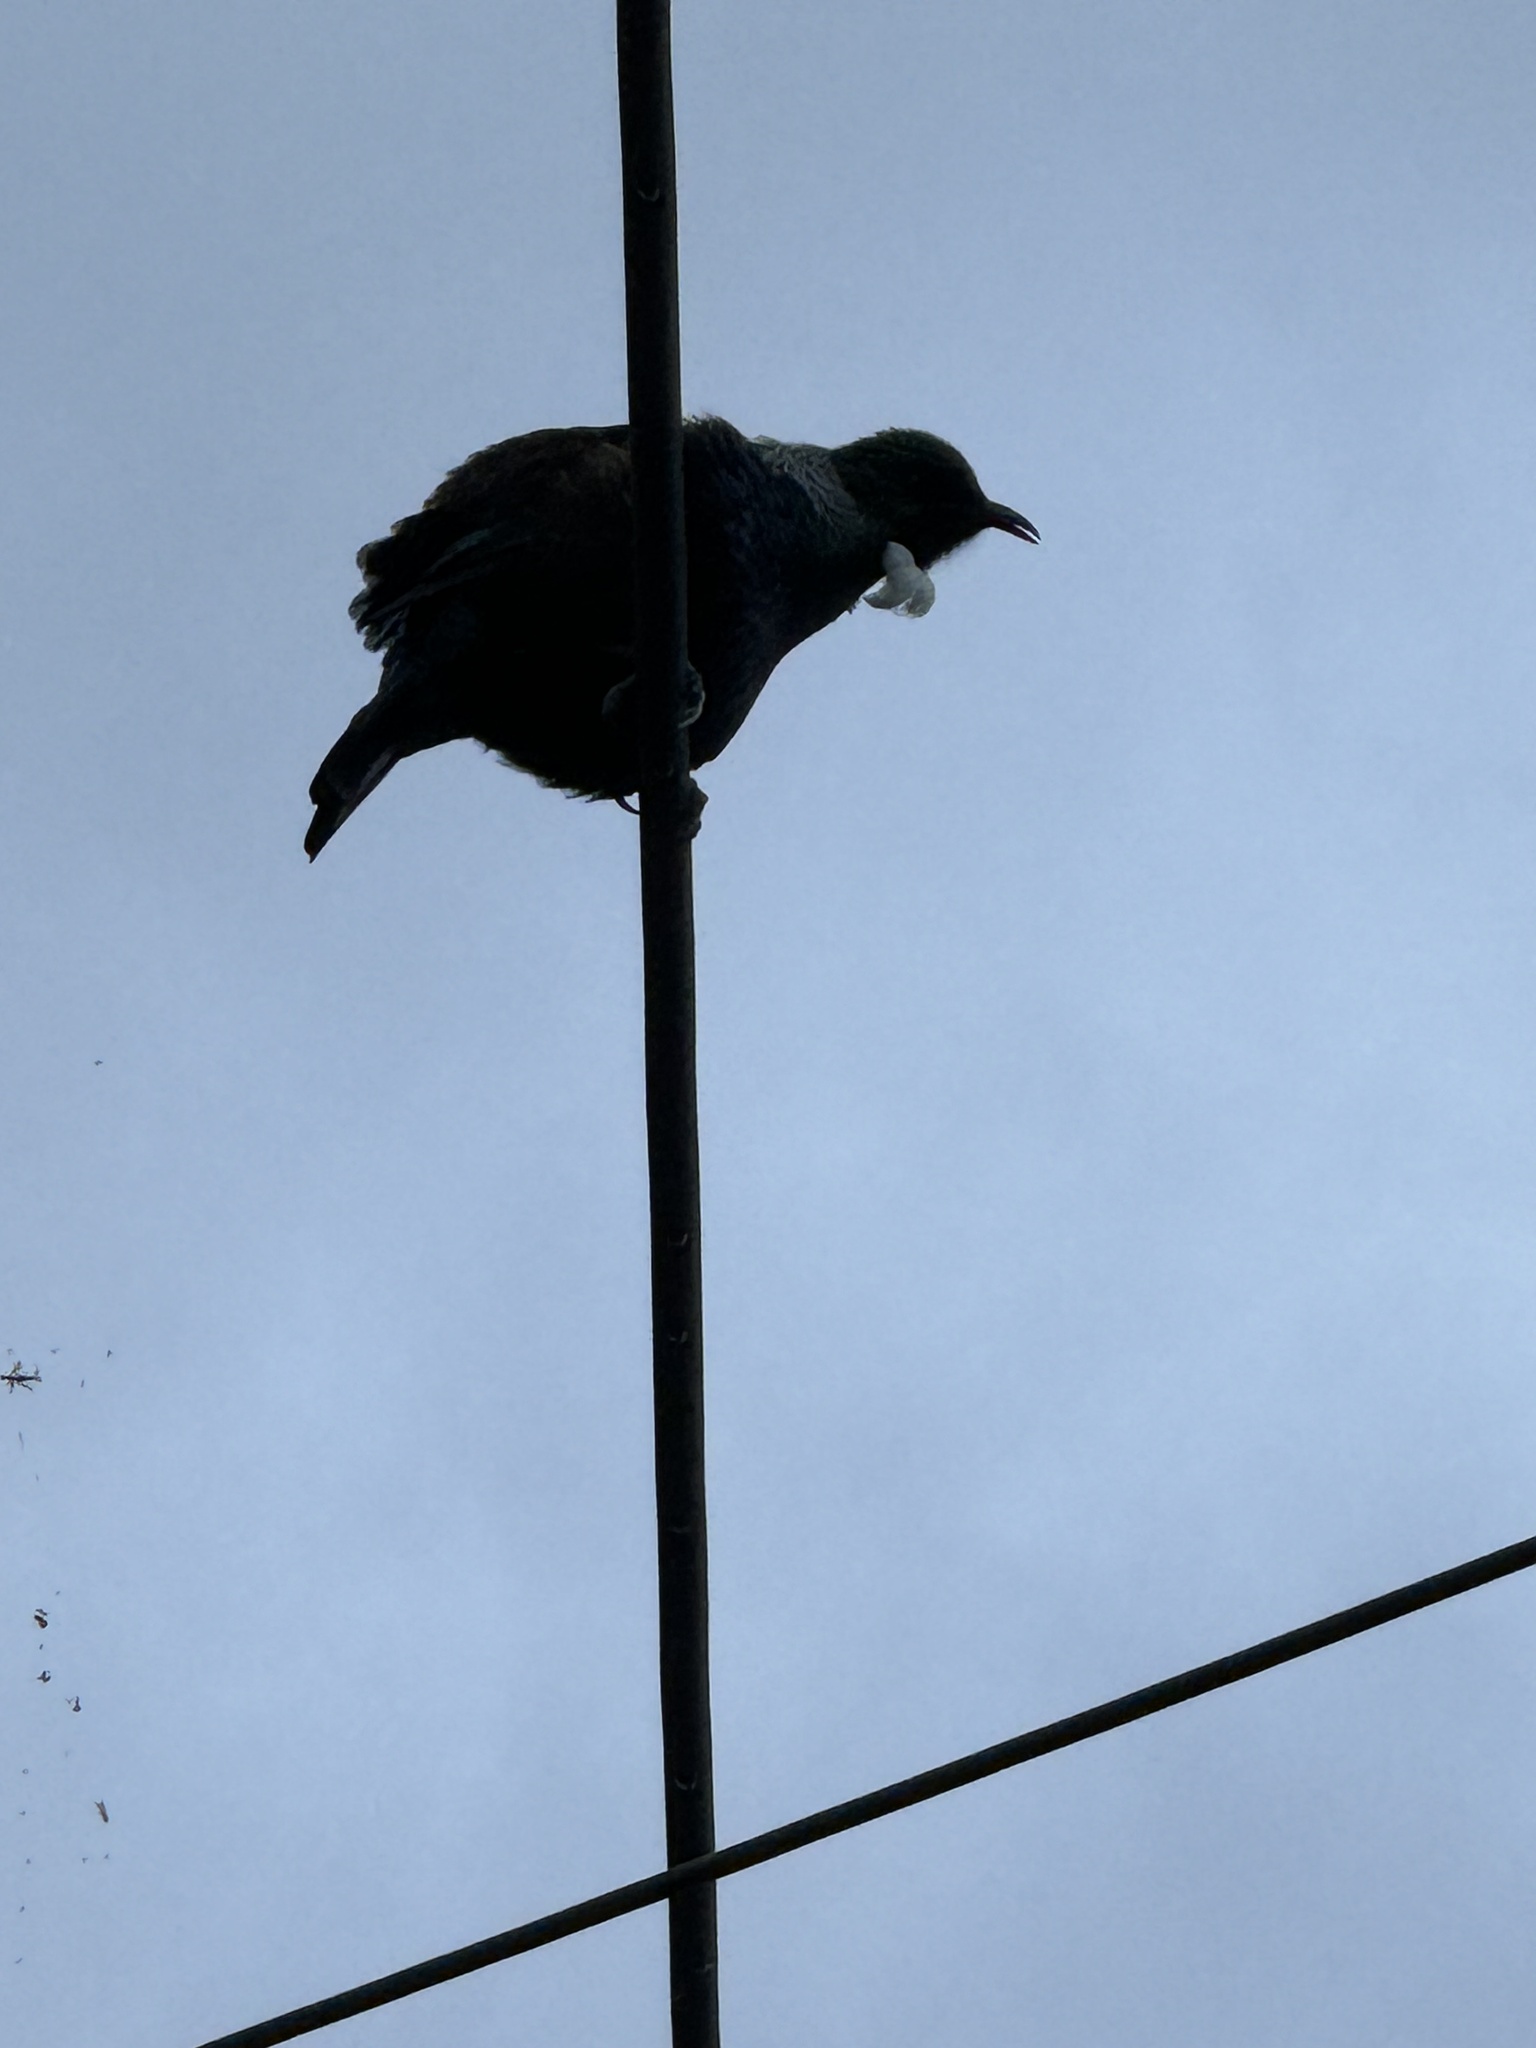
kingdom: Animalia
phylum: Chordata
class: Aves
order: Passeriformes
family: Meliphagidae
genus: Prosthemadera
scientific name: Prosthemadera novaeseelandiae
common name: Tui
